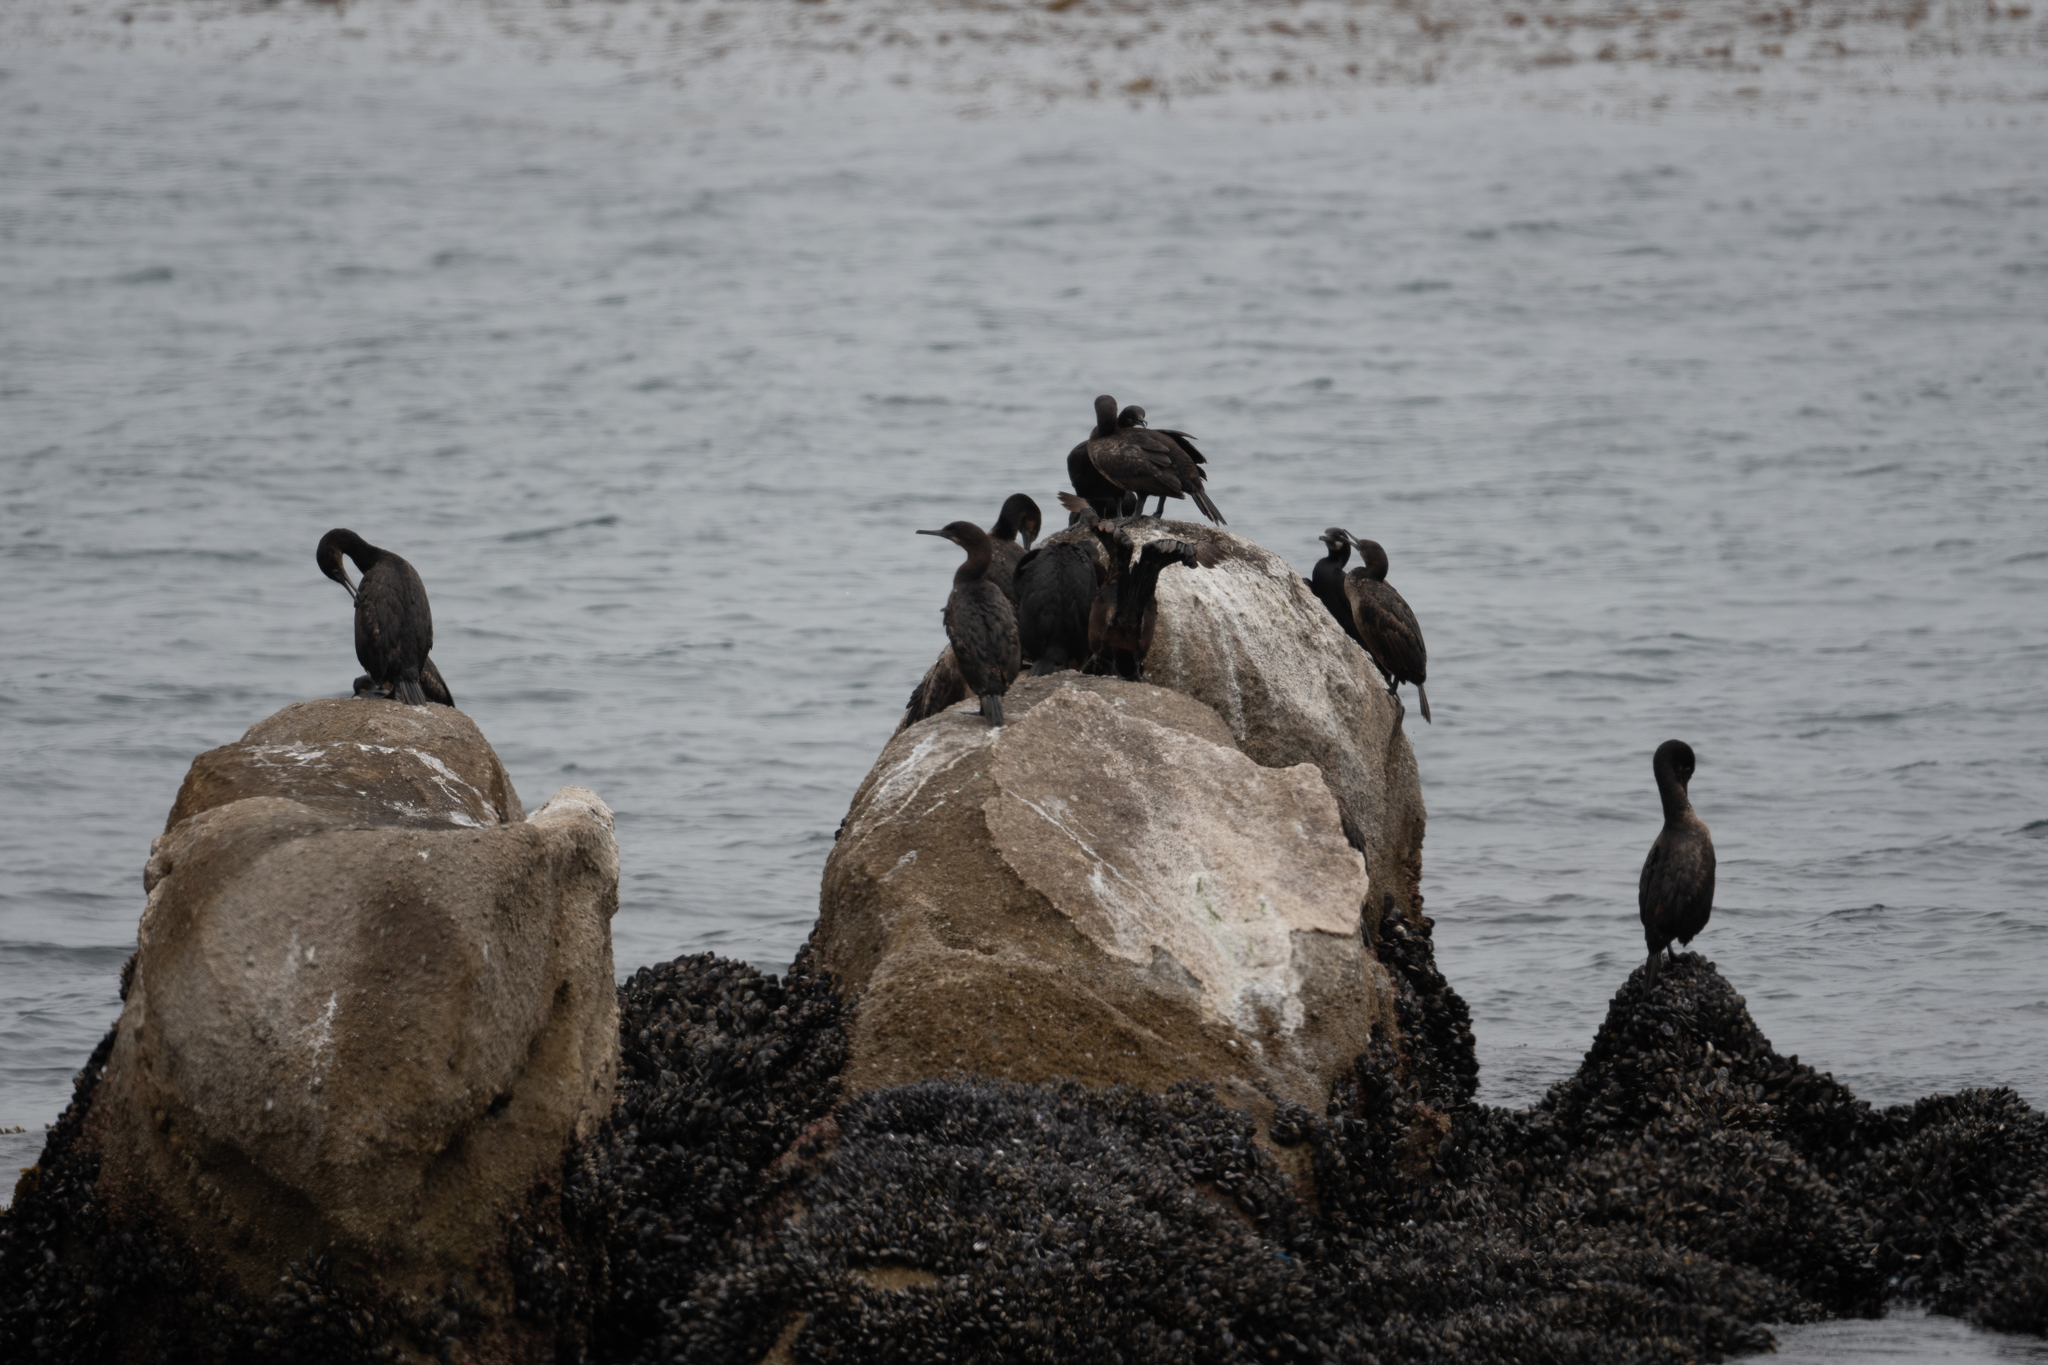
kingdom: Animalia
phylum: Chordata
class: Aves
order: Suliformes
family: Phalacrocoracidae
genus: Urile
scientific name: Urile penicillatus
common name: Brandt's cormorant
